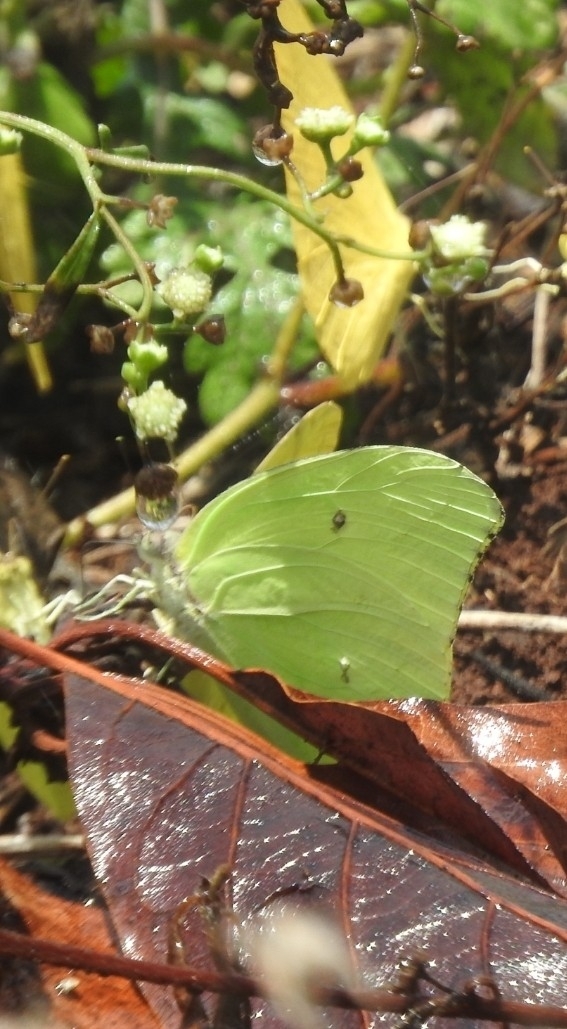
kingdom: Animalia
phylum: Arthropoda
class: Insecta
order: Lepidoptera
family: Pieridae
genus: Anteos
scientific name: Anteos maerula
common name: Angled sulphur
